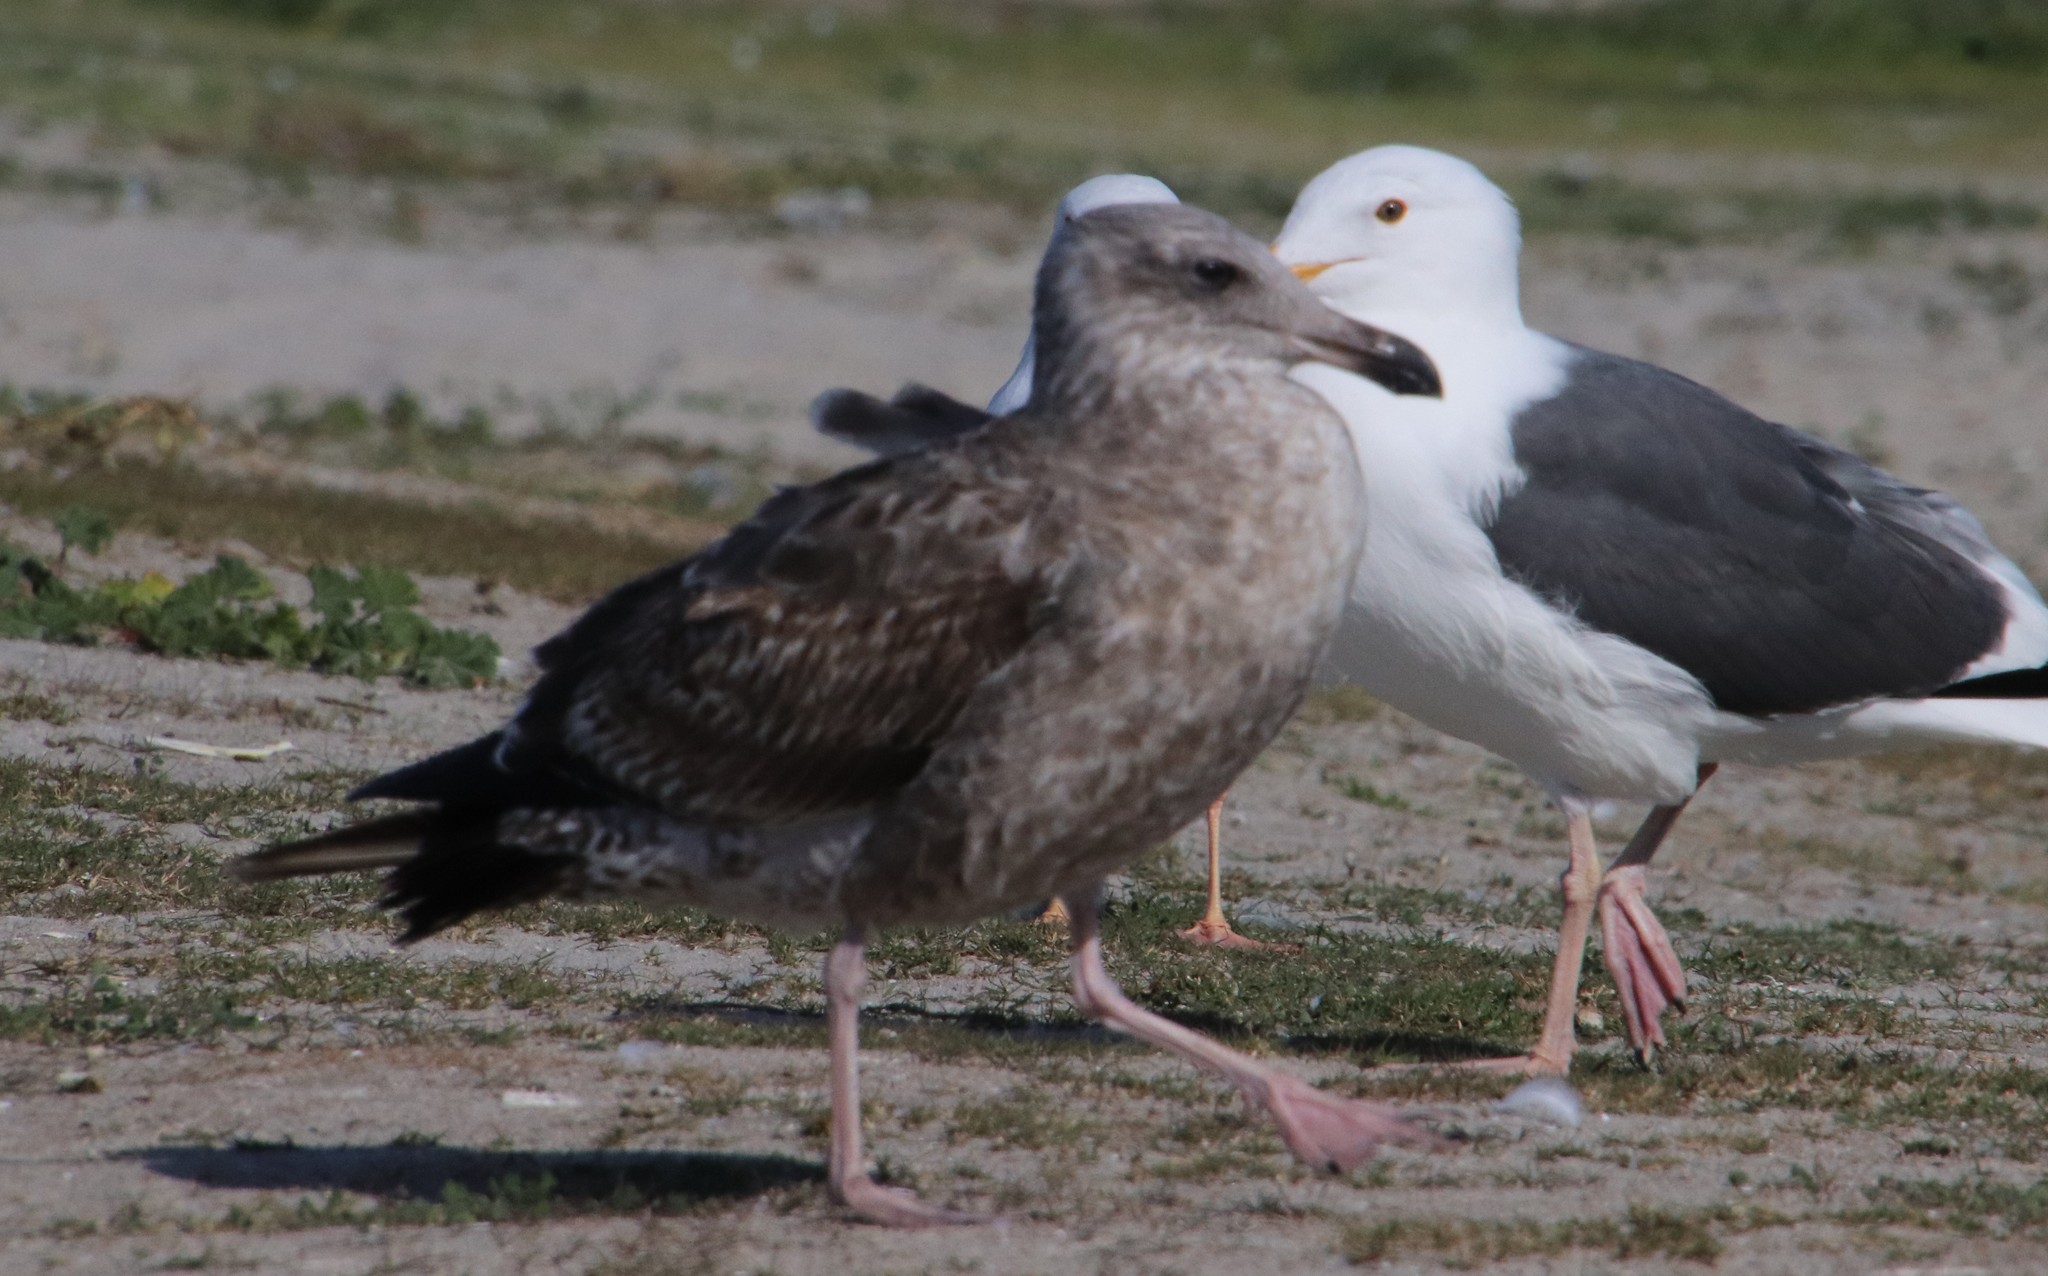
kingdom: Animalia
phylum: Chordata
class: Aves
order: Charadriiformes
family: Laridae
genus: Larus
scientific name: Larus occidentalis
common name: Western gull
